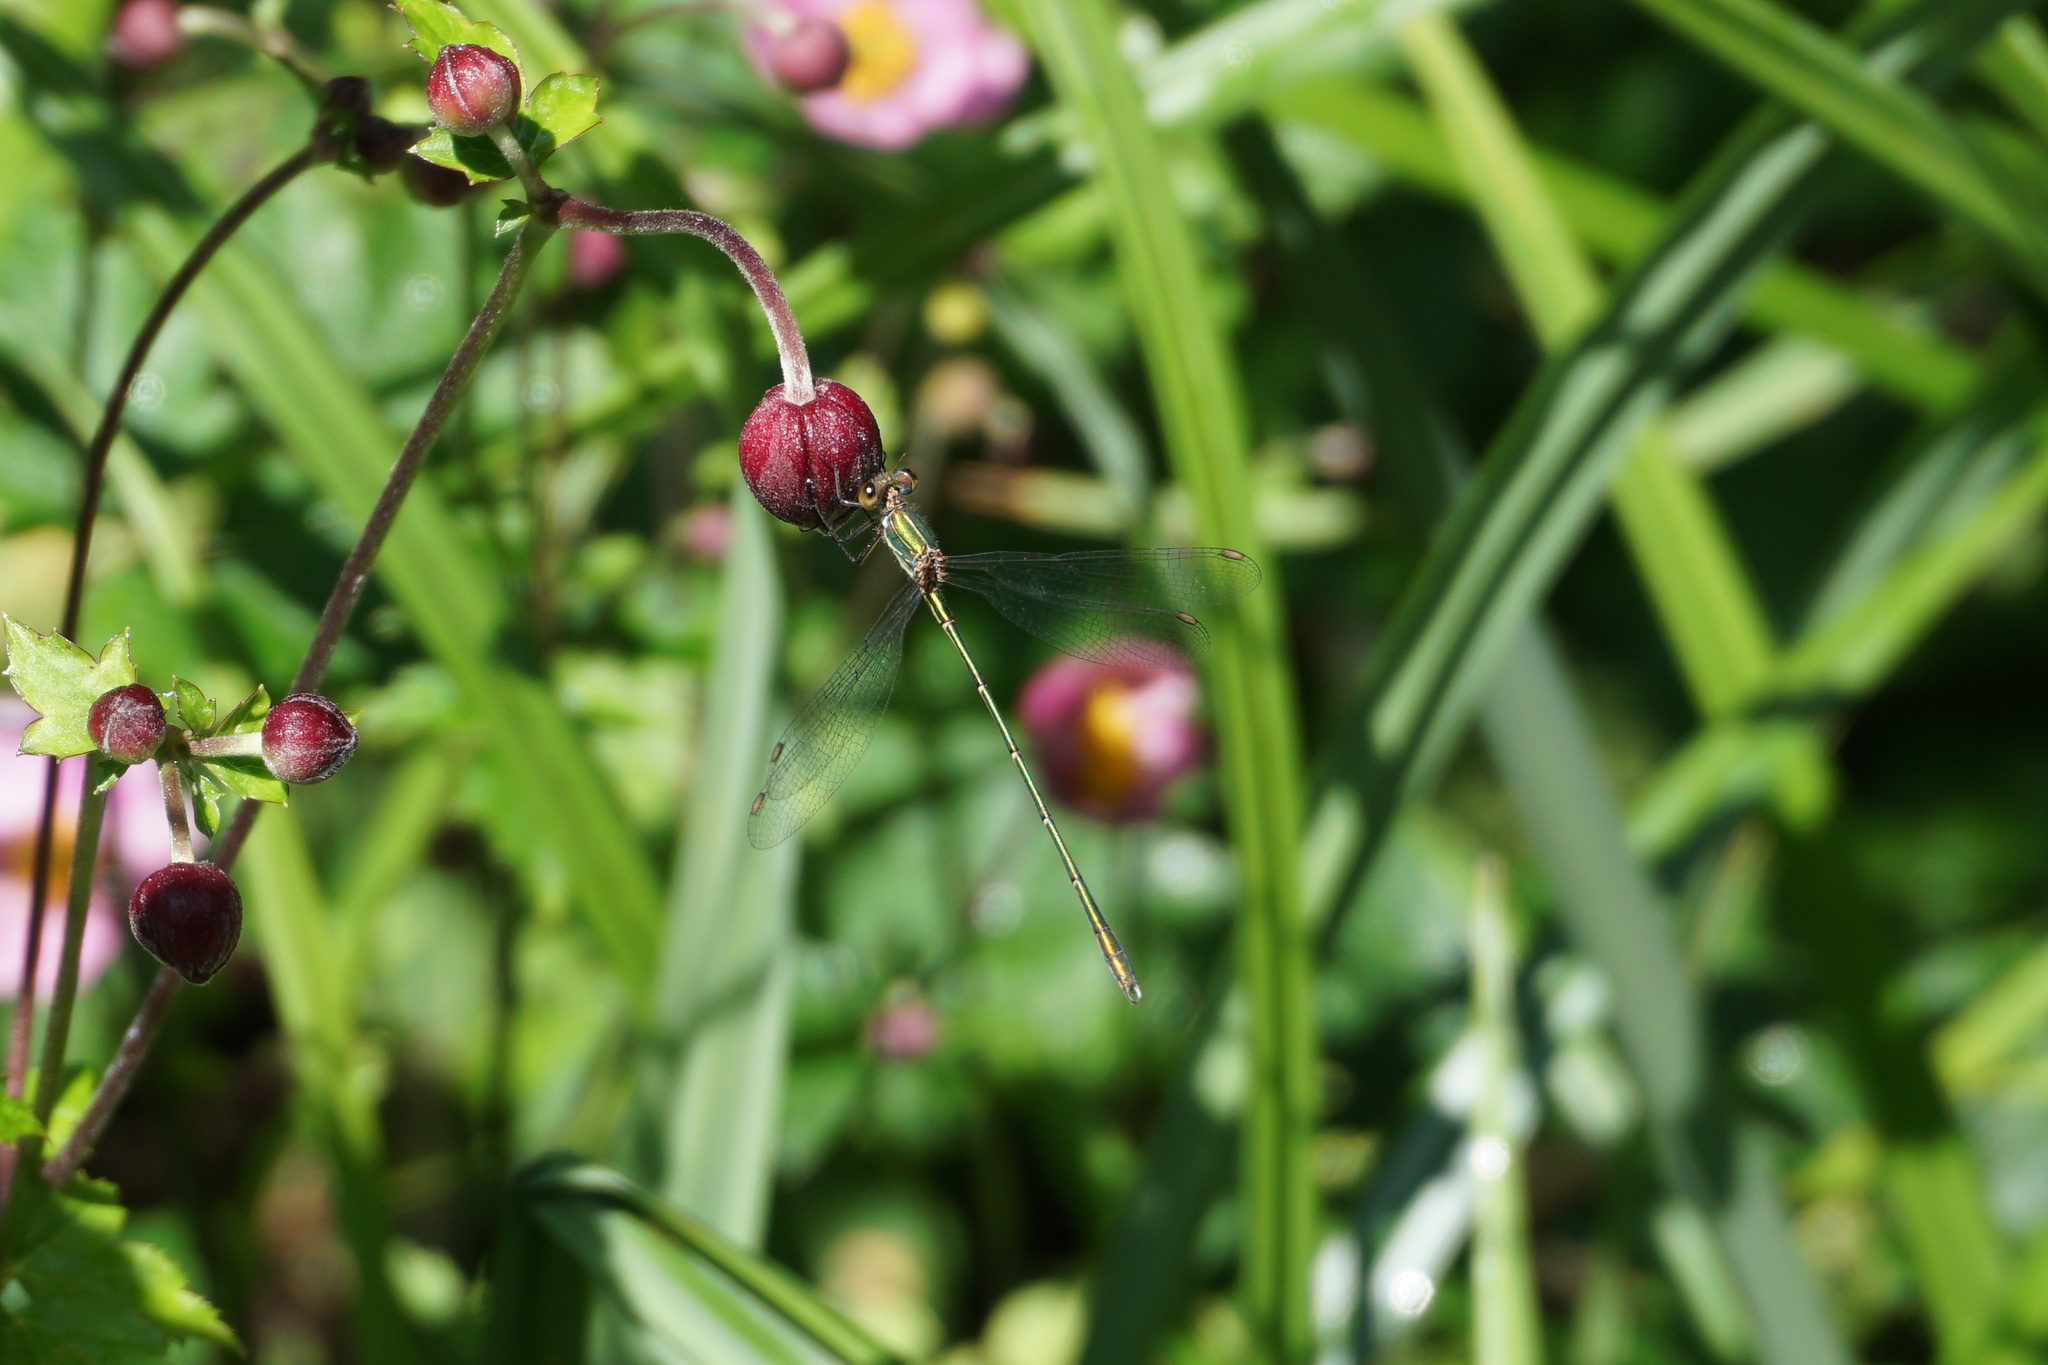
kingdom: Animalia
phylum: Arthropoda
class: Insecta
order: Odonata
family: Lestidae
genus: Chalcolestes
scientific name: Chalcolestes viridis
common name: Green emerald damselfly
